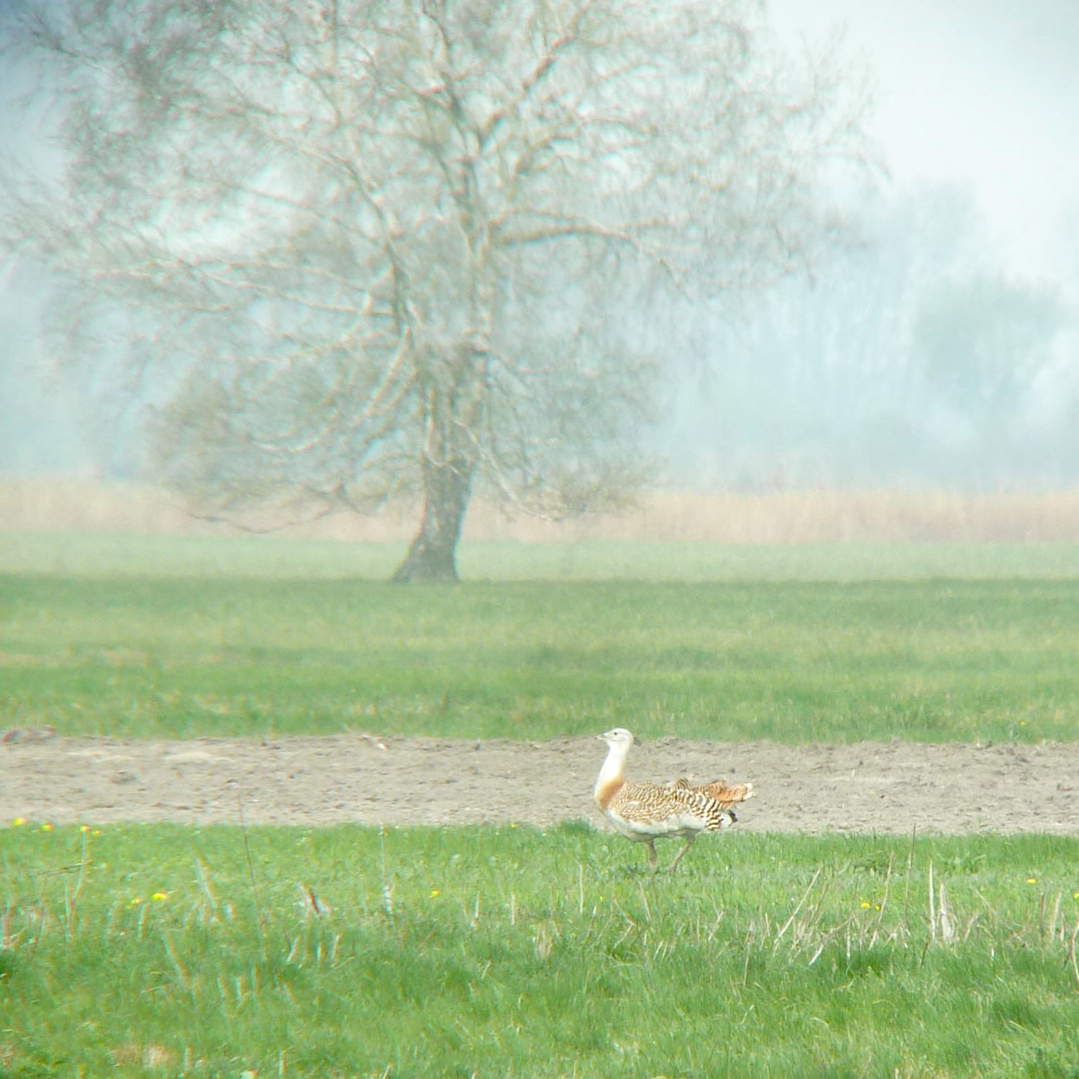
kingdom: Animalia
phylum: Chordata
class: Aves
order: Otidiformes
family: Otididae
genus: Otis
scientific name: Otis tarda
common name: Great bustard
